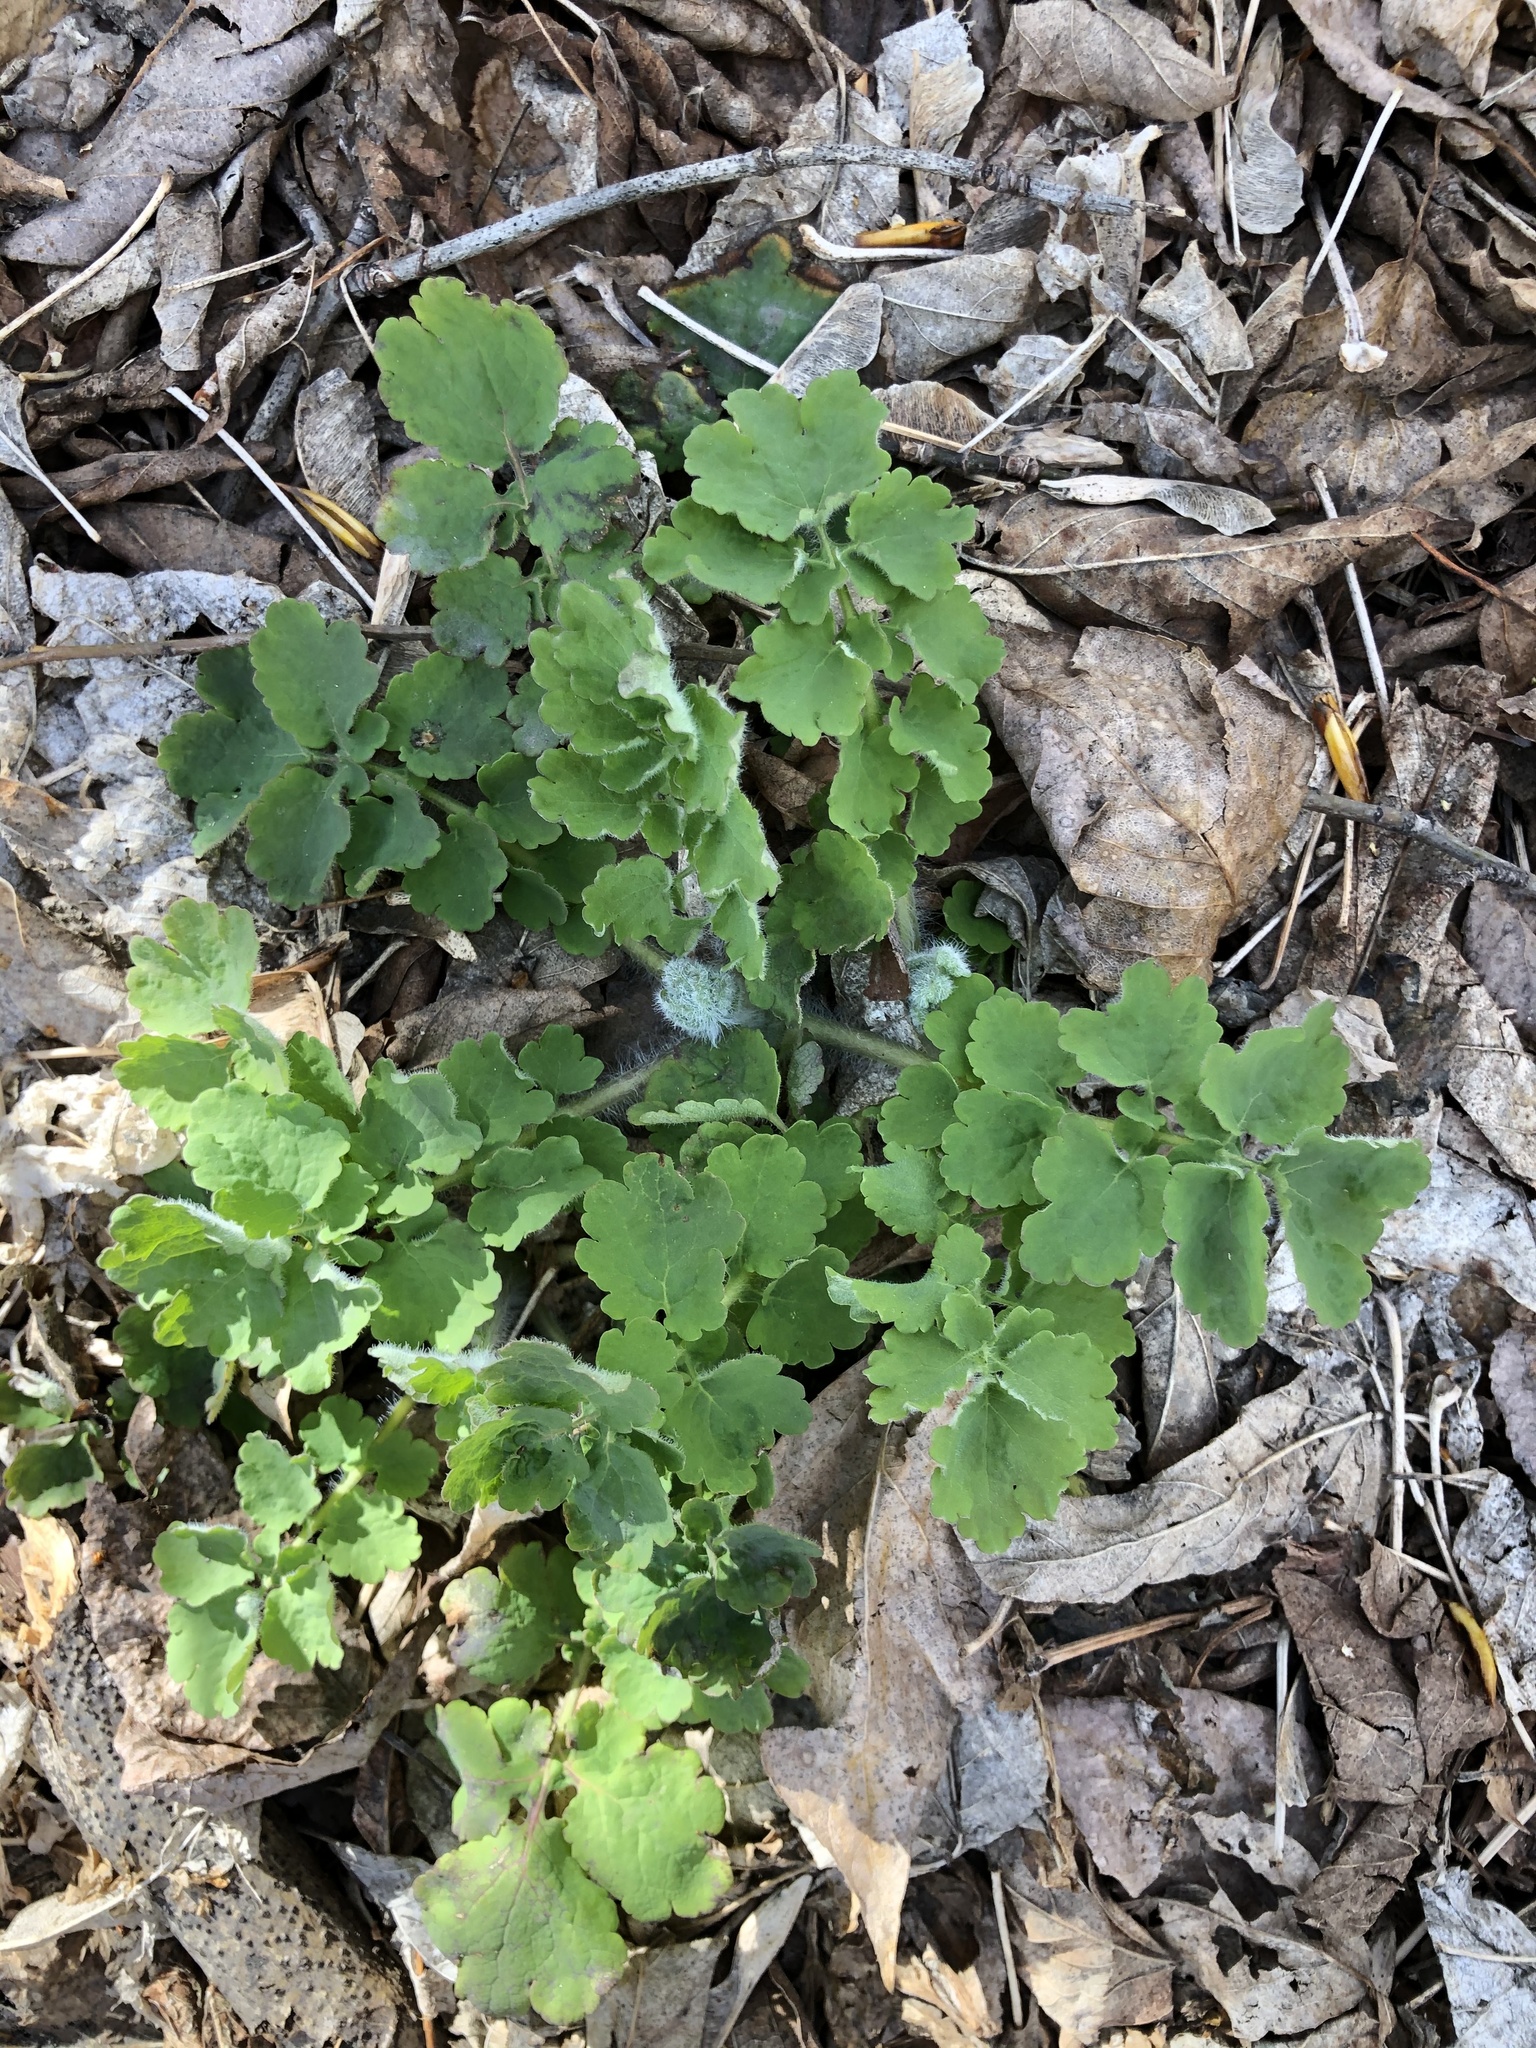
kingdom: Plantae
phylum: Tracheophyta
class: Magnoliopsida
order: Ranunculales
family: Papaveraceae
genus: Chelidonium
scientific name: Chelidonium majus
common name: Greater celandine
